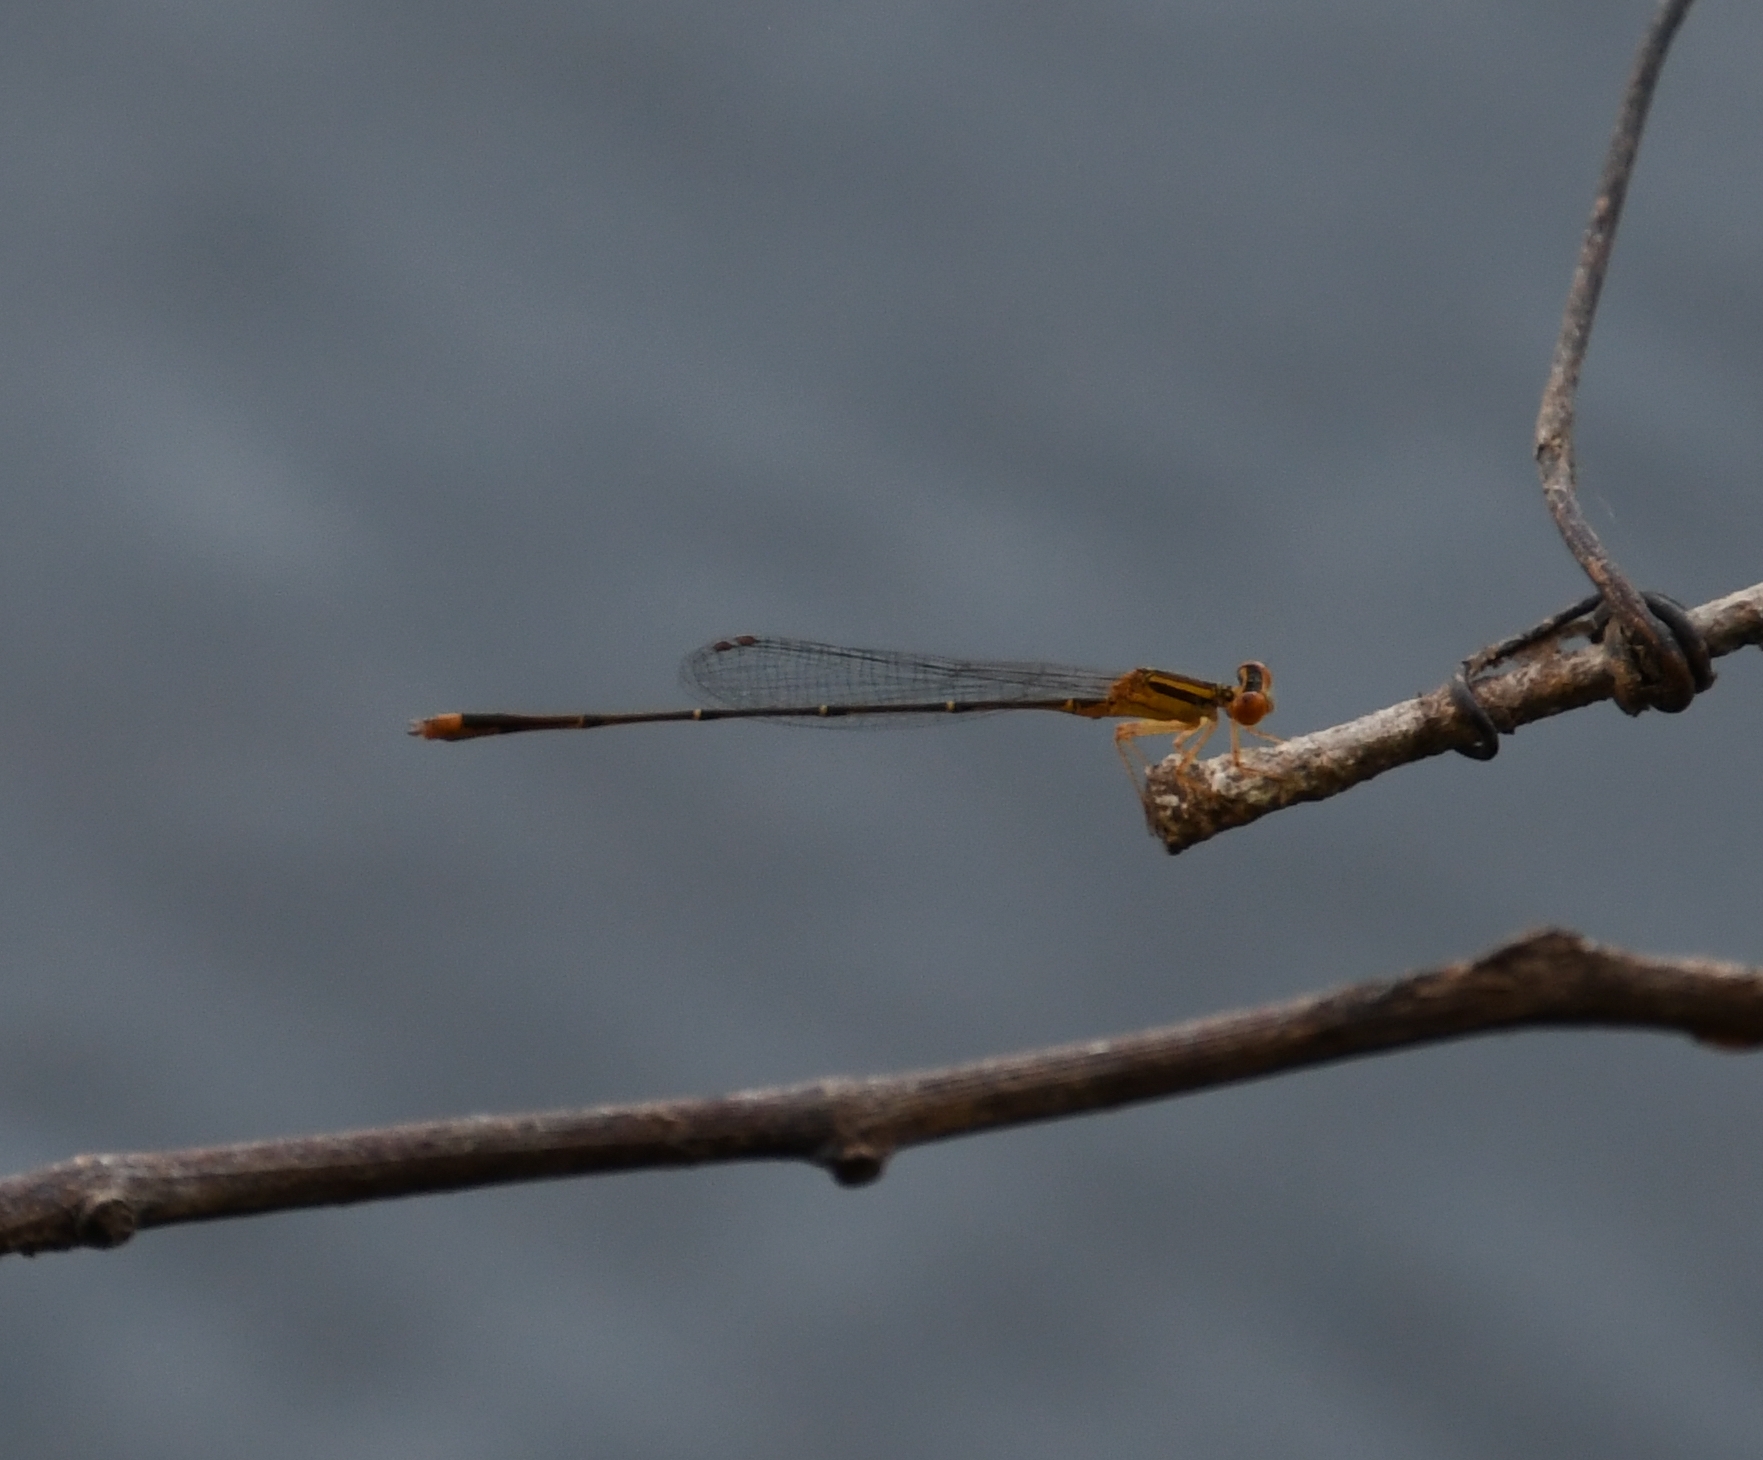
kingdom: Animalia
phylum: Arthropoda
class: Insecta
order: Odonata
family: Coenagrionidae
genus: Enallagma
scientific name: Enallagma signatum
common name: Orange bluet
